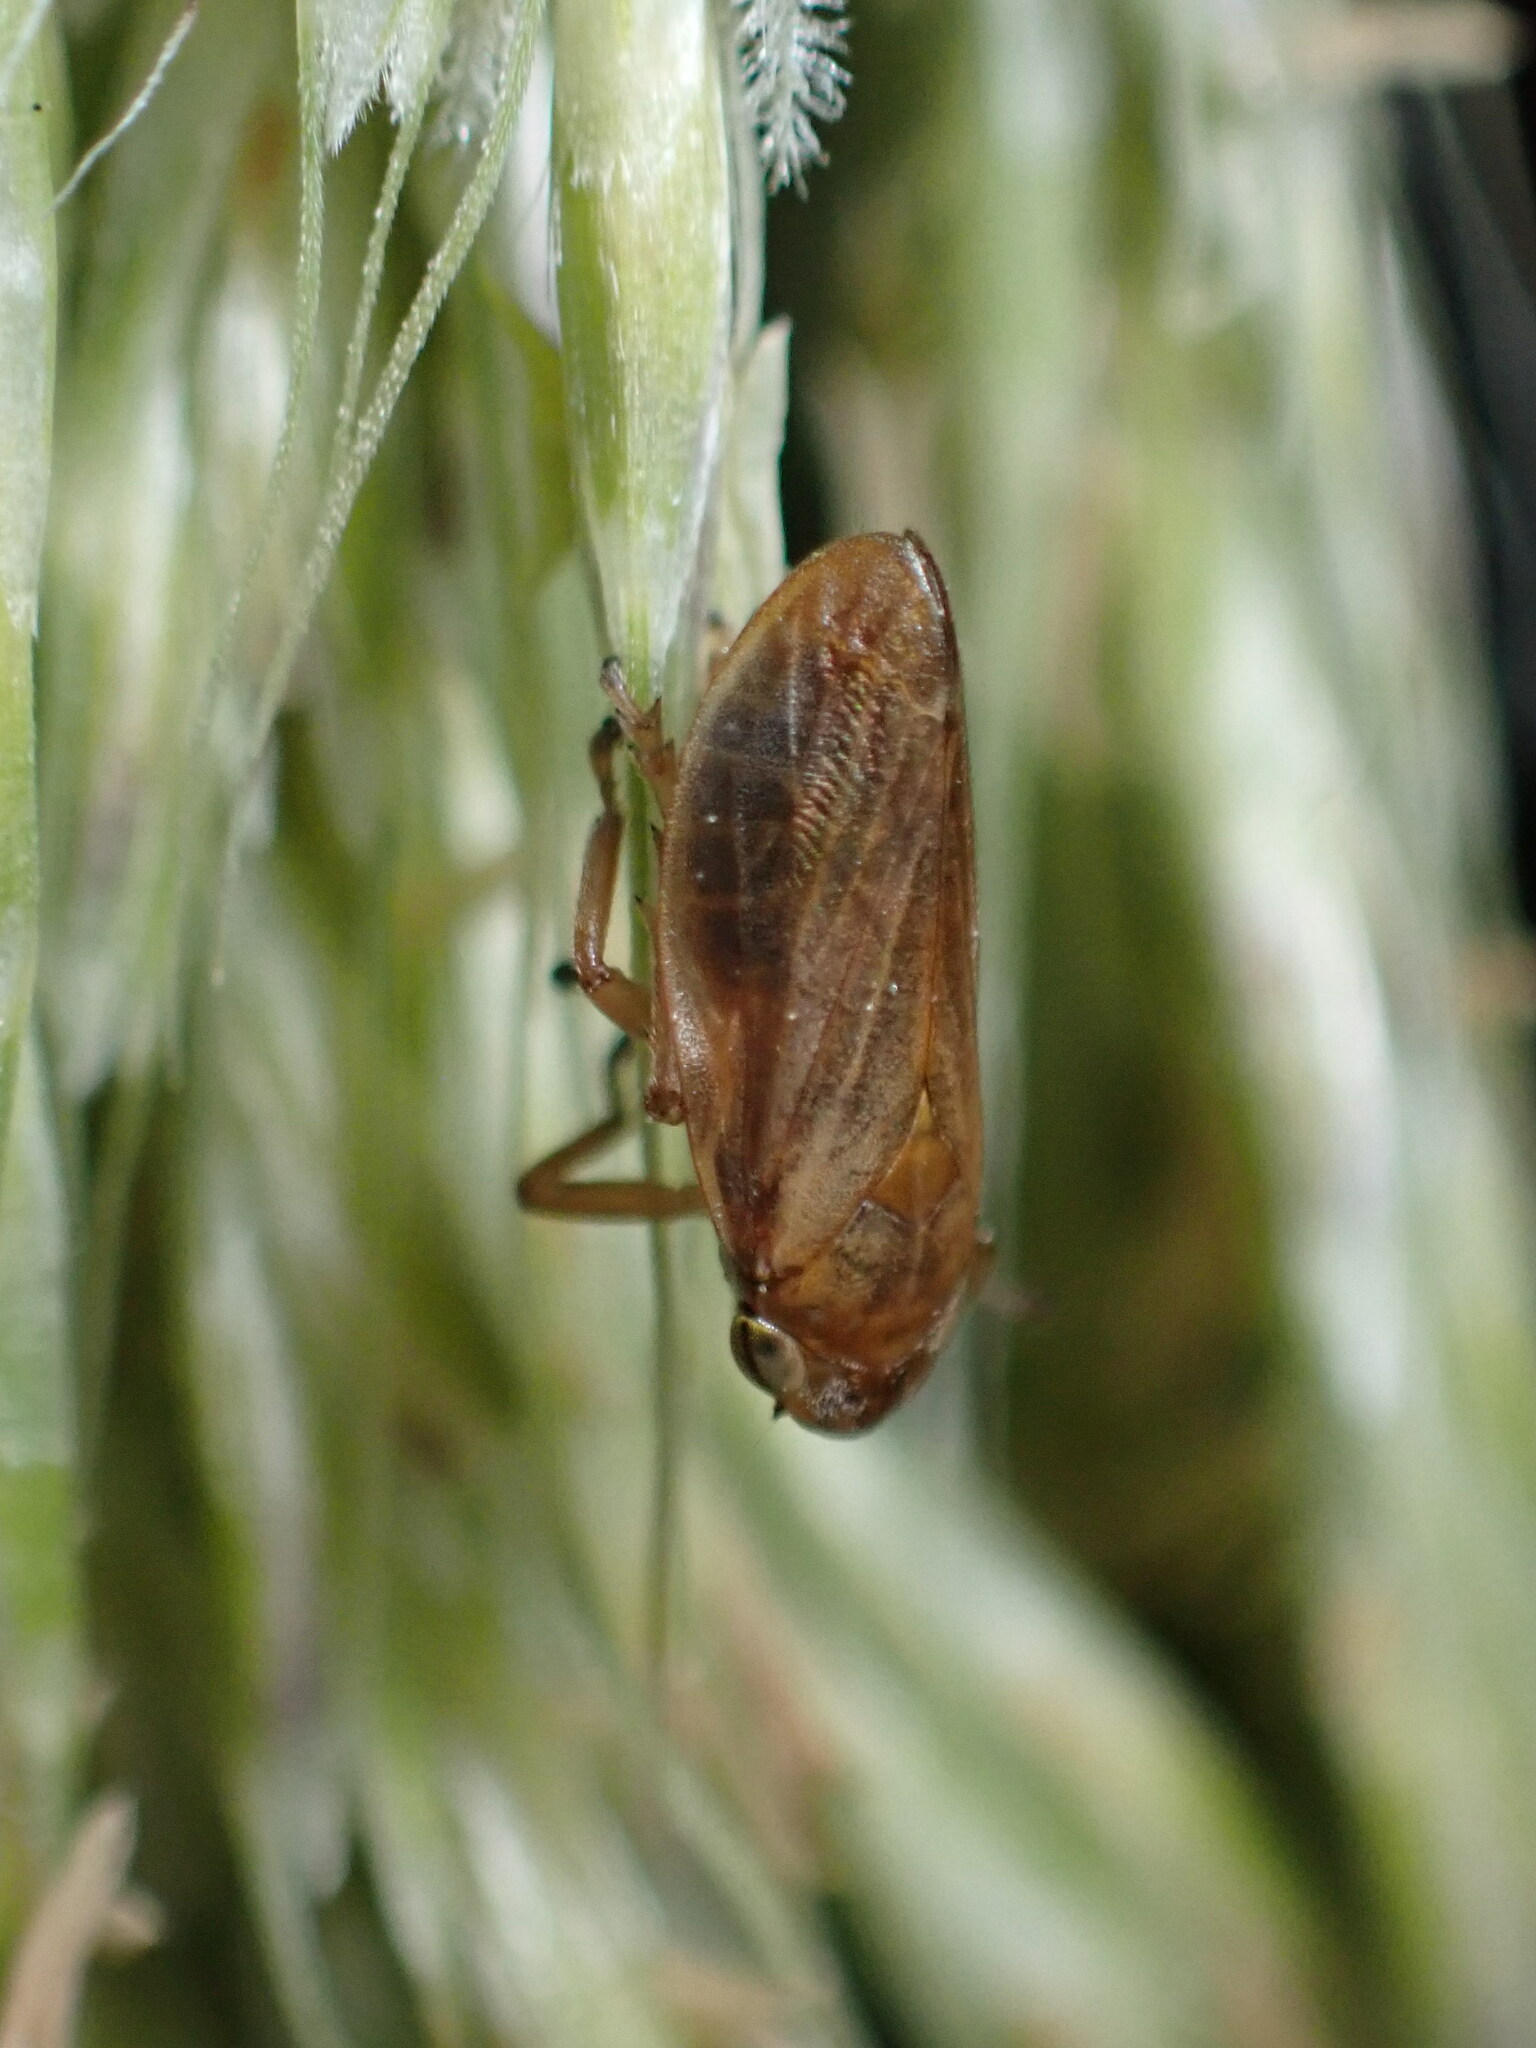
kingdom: Animalia
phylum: Arthropoda
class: Insecta
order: Hemiptera
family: Aphrophoridae
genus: Philaenus
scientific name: Philaenus spumarius
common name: Meadow spittlebug
